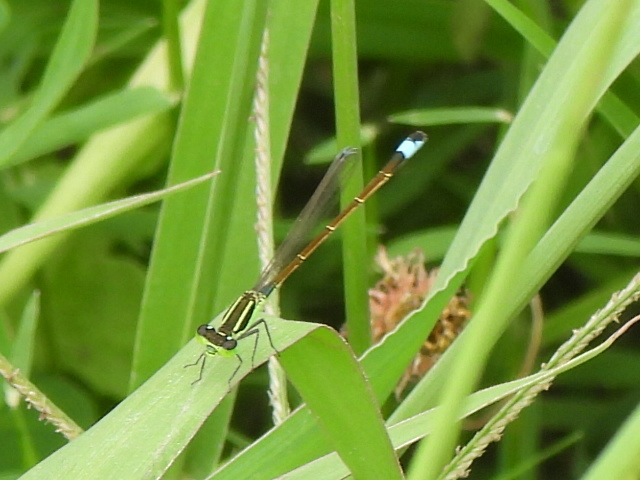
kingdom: Animalia
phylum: Arthropoda
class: Insecta
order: Odonata
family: Coenagrionidae
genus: Ischnura
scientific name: Ischnura ramburii
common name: Rambur's forktail
